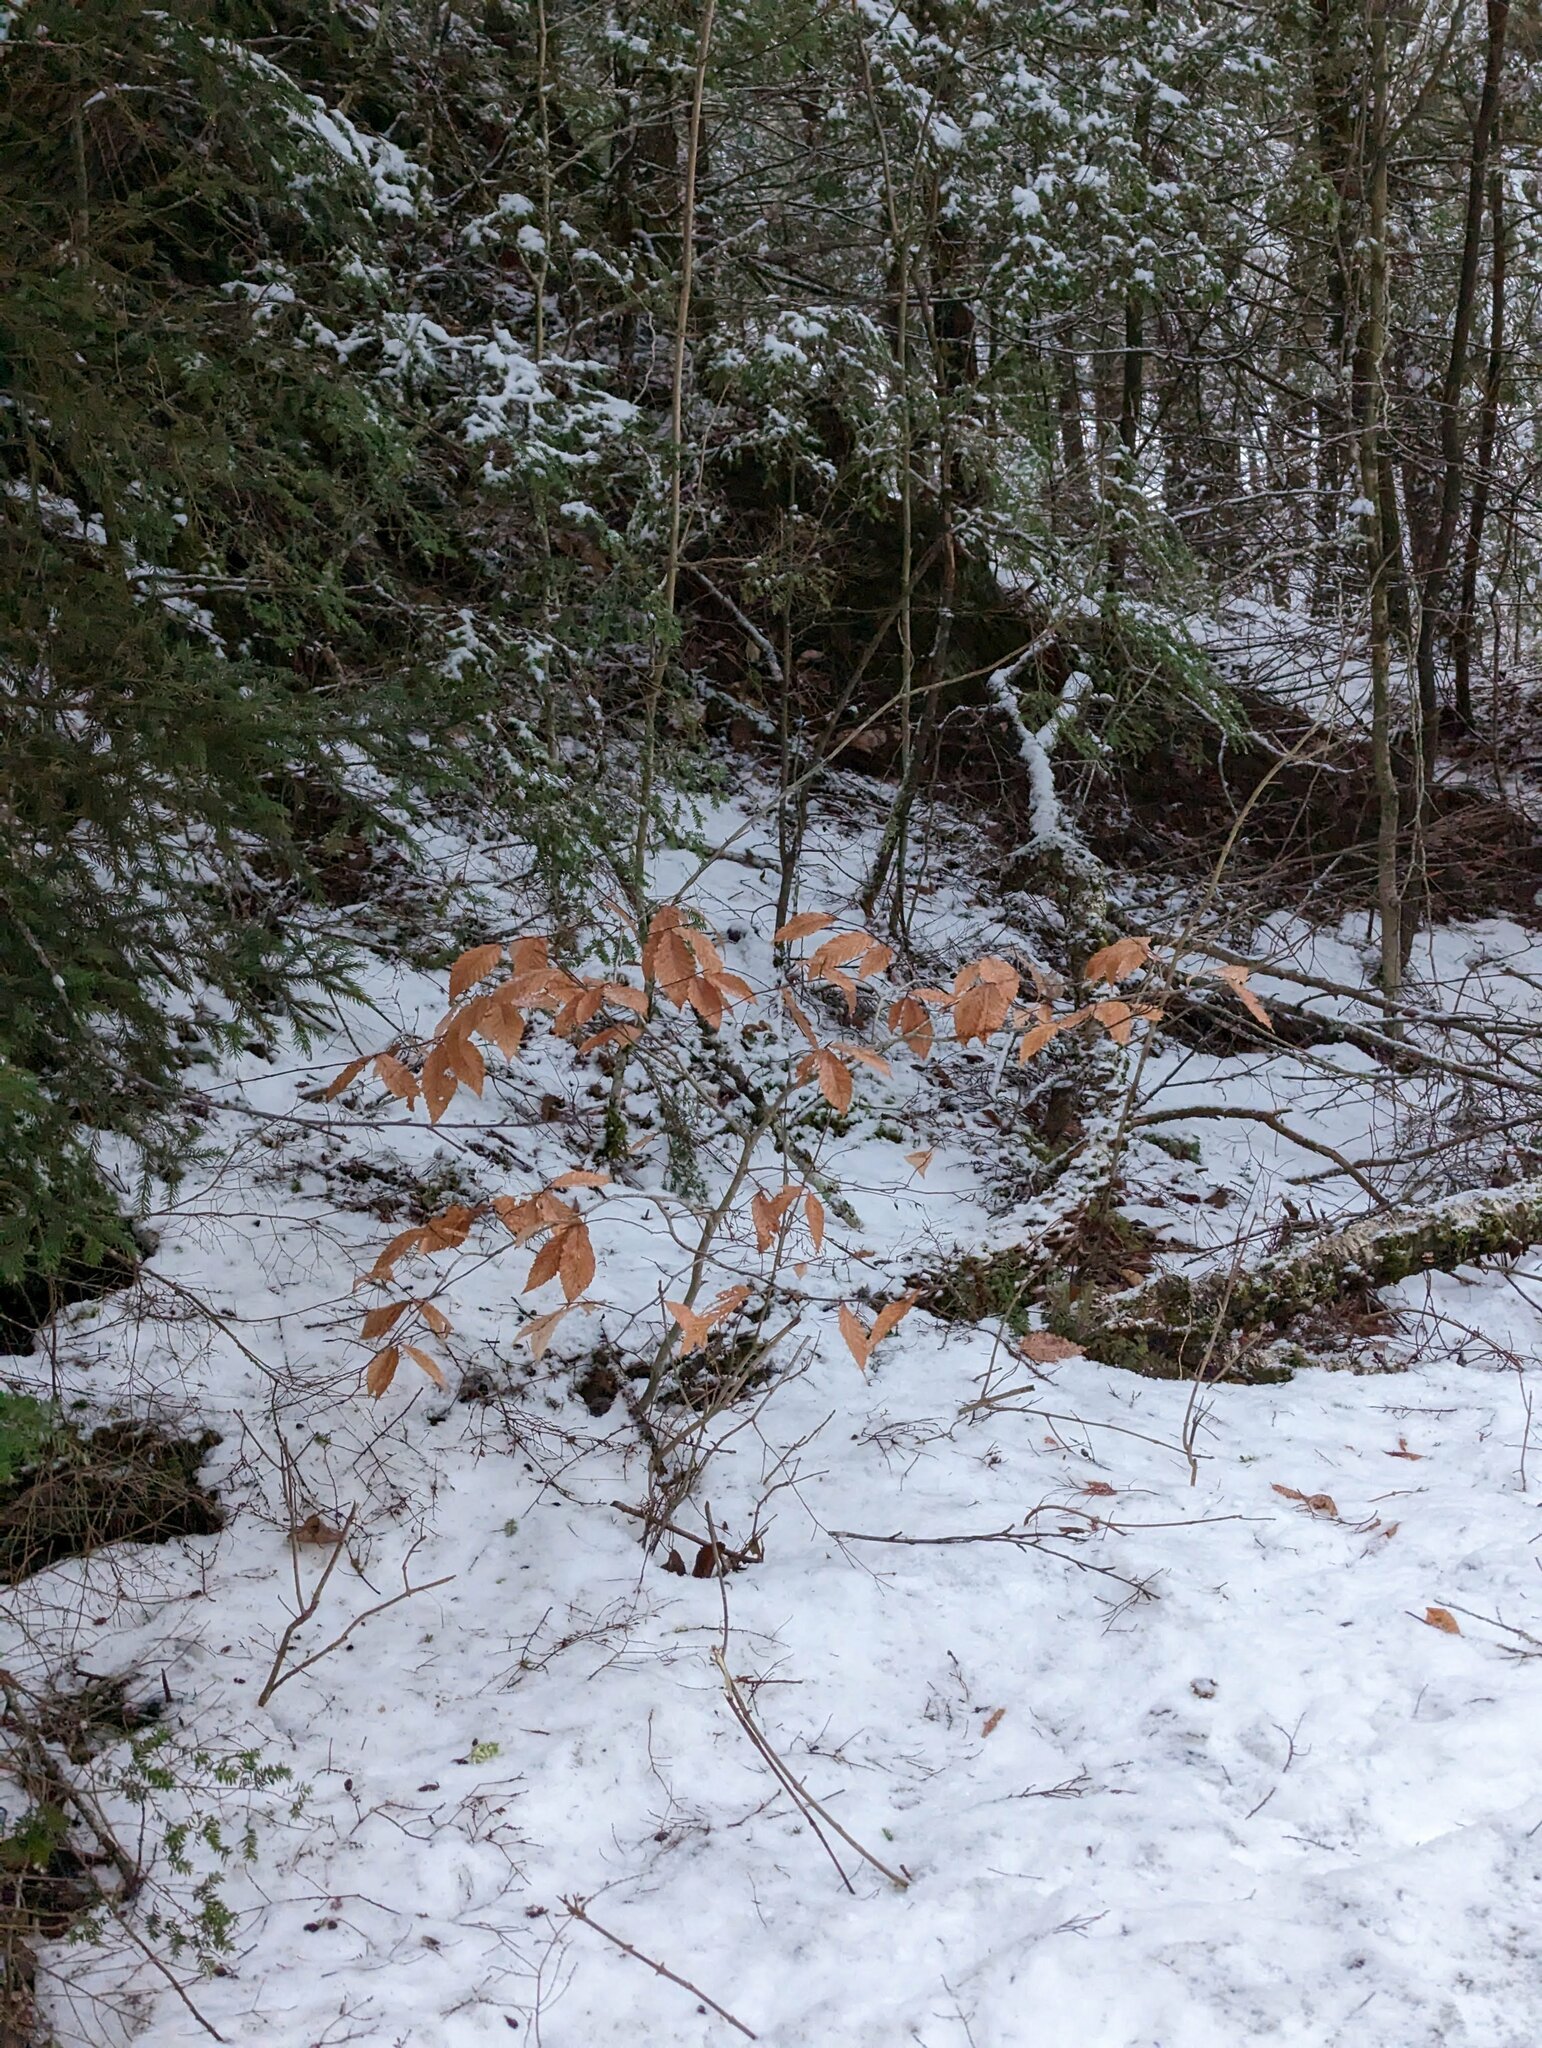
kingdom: Plantae
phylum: Tracheophyta
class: Magnoliopsida
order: Fagales
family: Fagaceae
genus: Fagus
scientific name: Fagus grandifolia
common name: American beech
